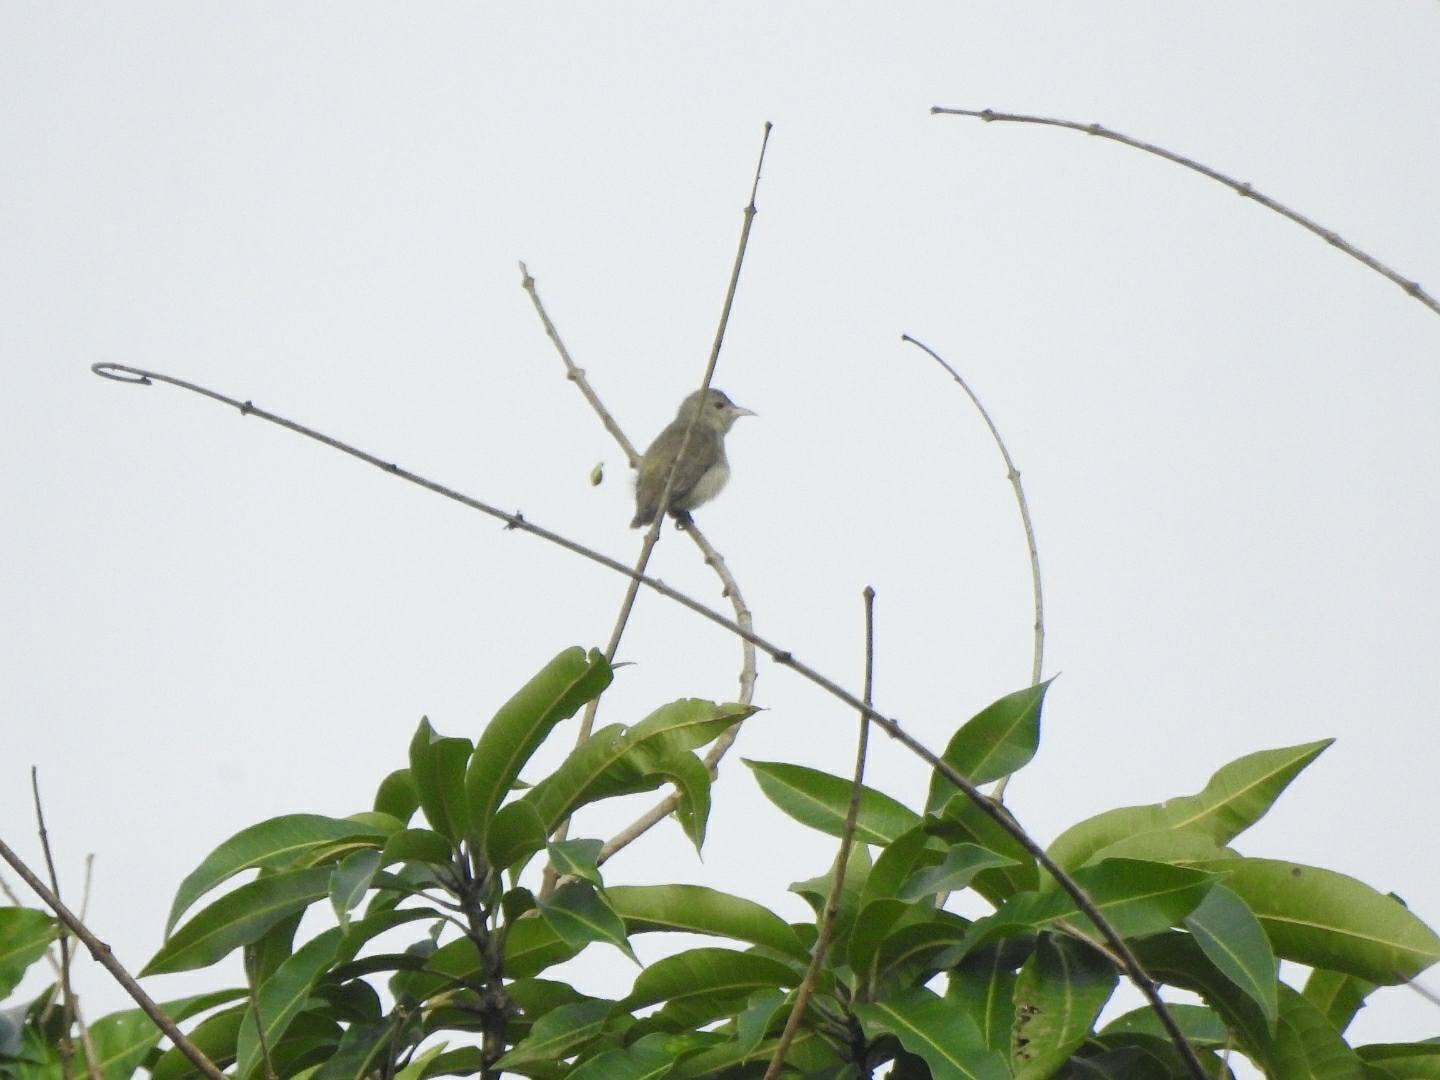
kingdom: Animalia
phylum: Chordata
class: Aves
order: Passeriformes
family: Dicaeidae
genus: Dicaeum
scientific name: Dicaeum erythrorhynchos
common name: Pale-billed flowerpecker
